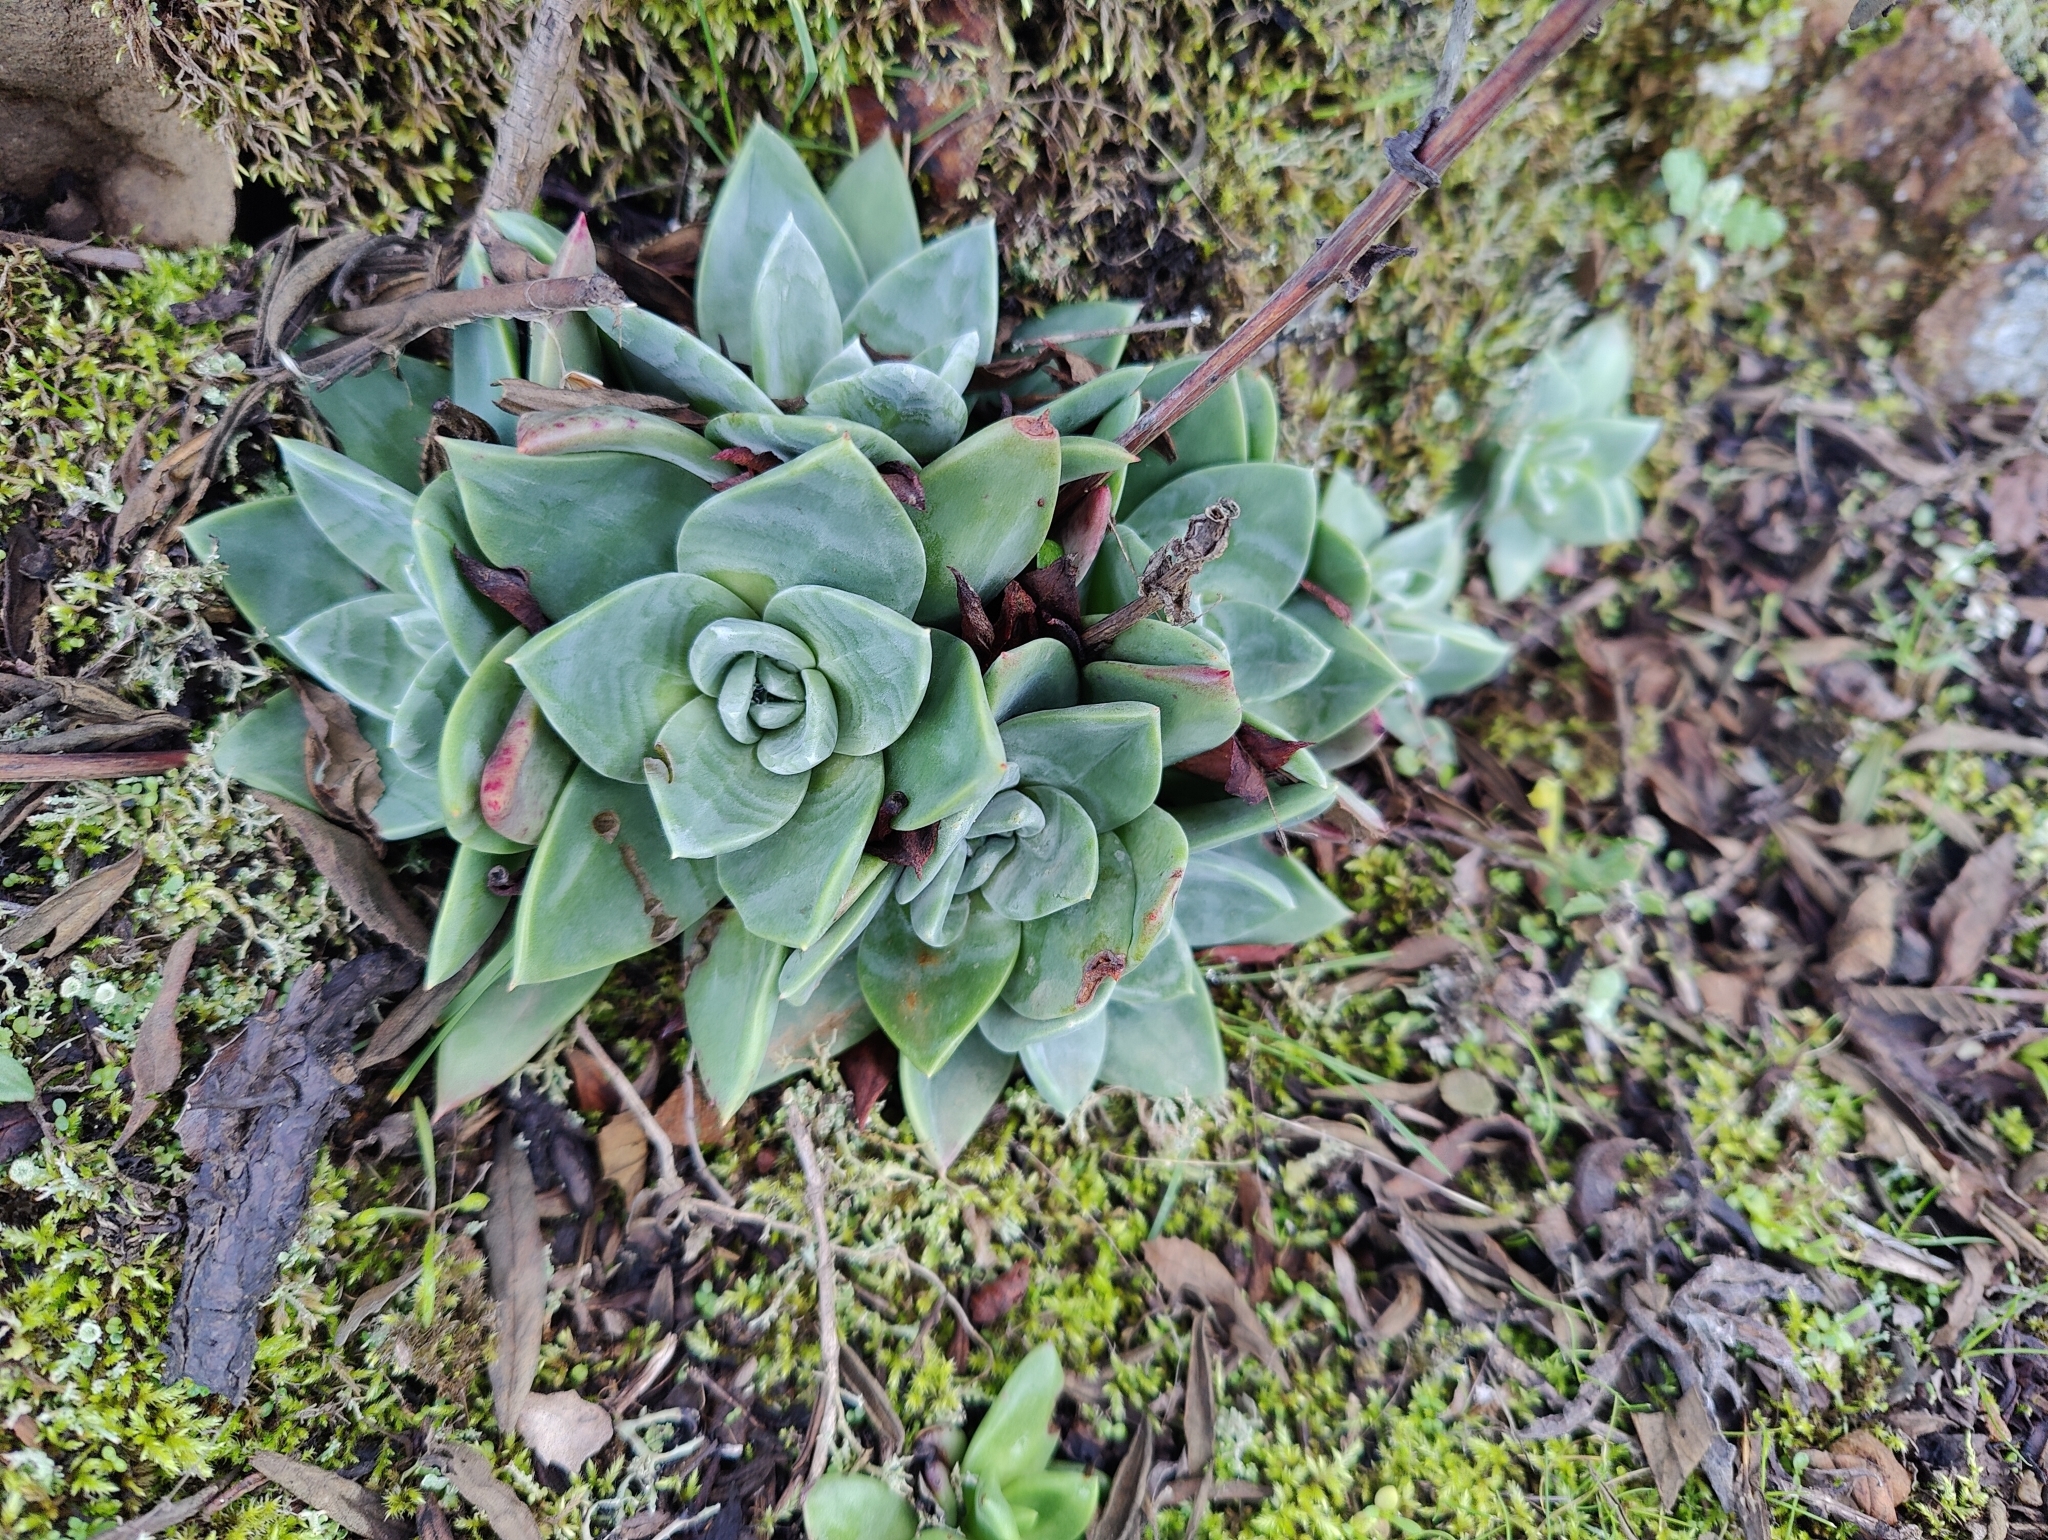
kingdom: Plantae
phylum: Tracheophyta
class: Magnoliopsida
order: Saxifragales
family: Crassulaceae
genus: Dudleya
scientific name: Dudleya caespitosa
